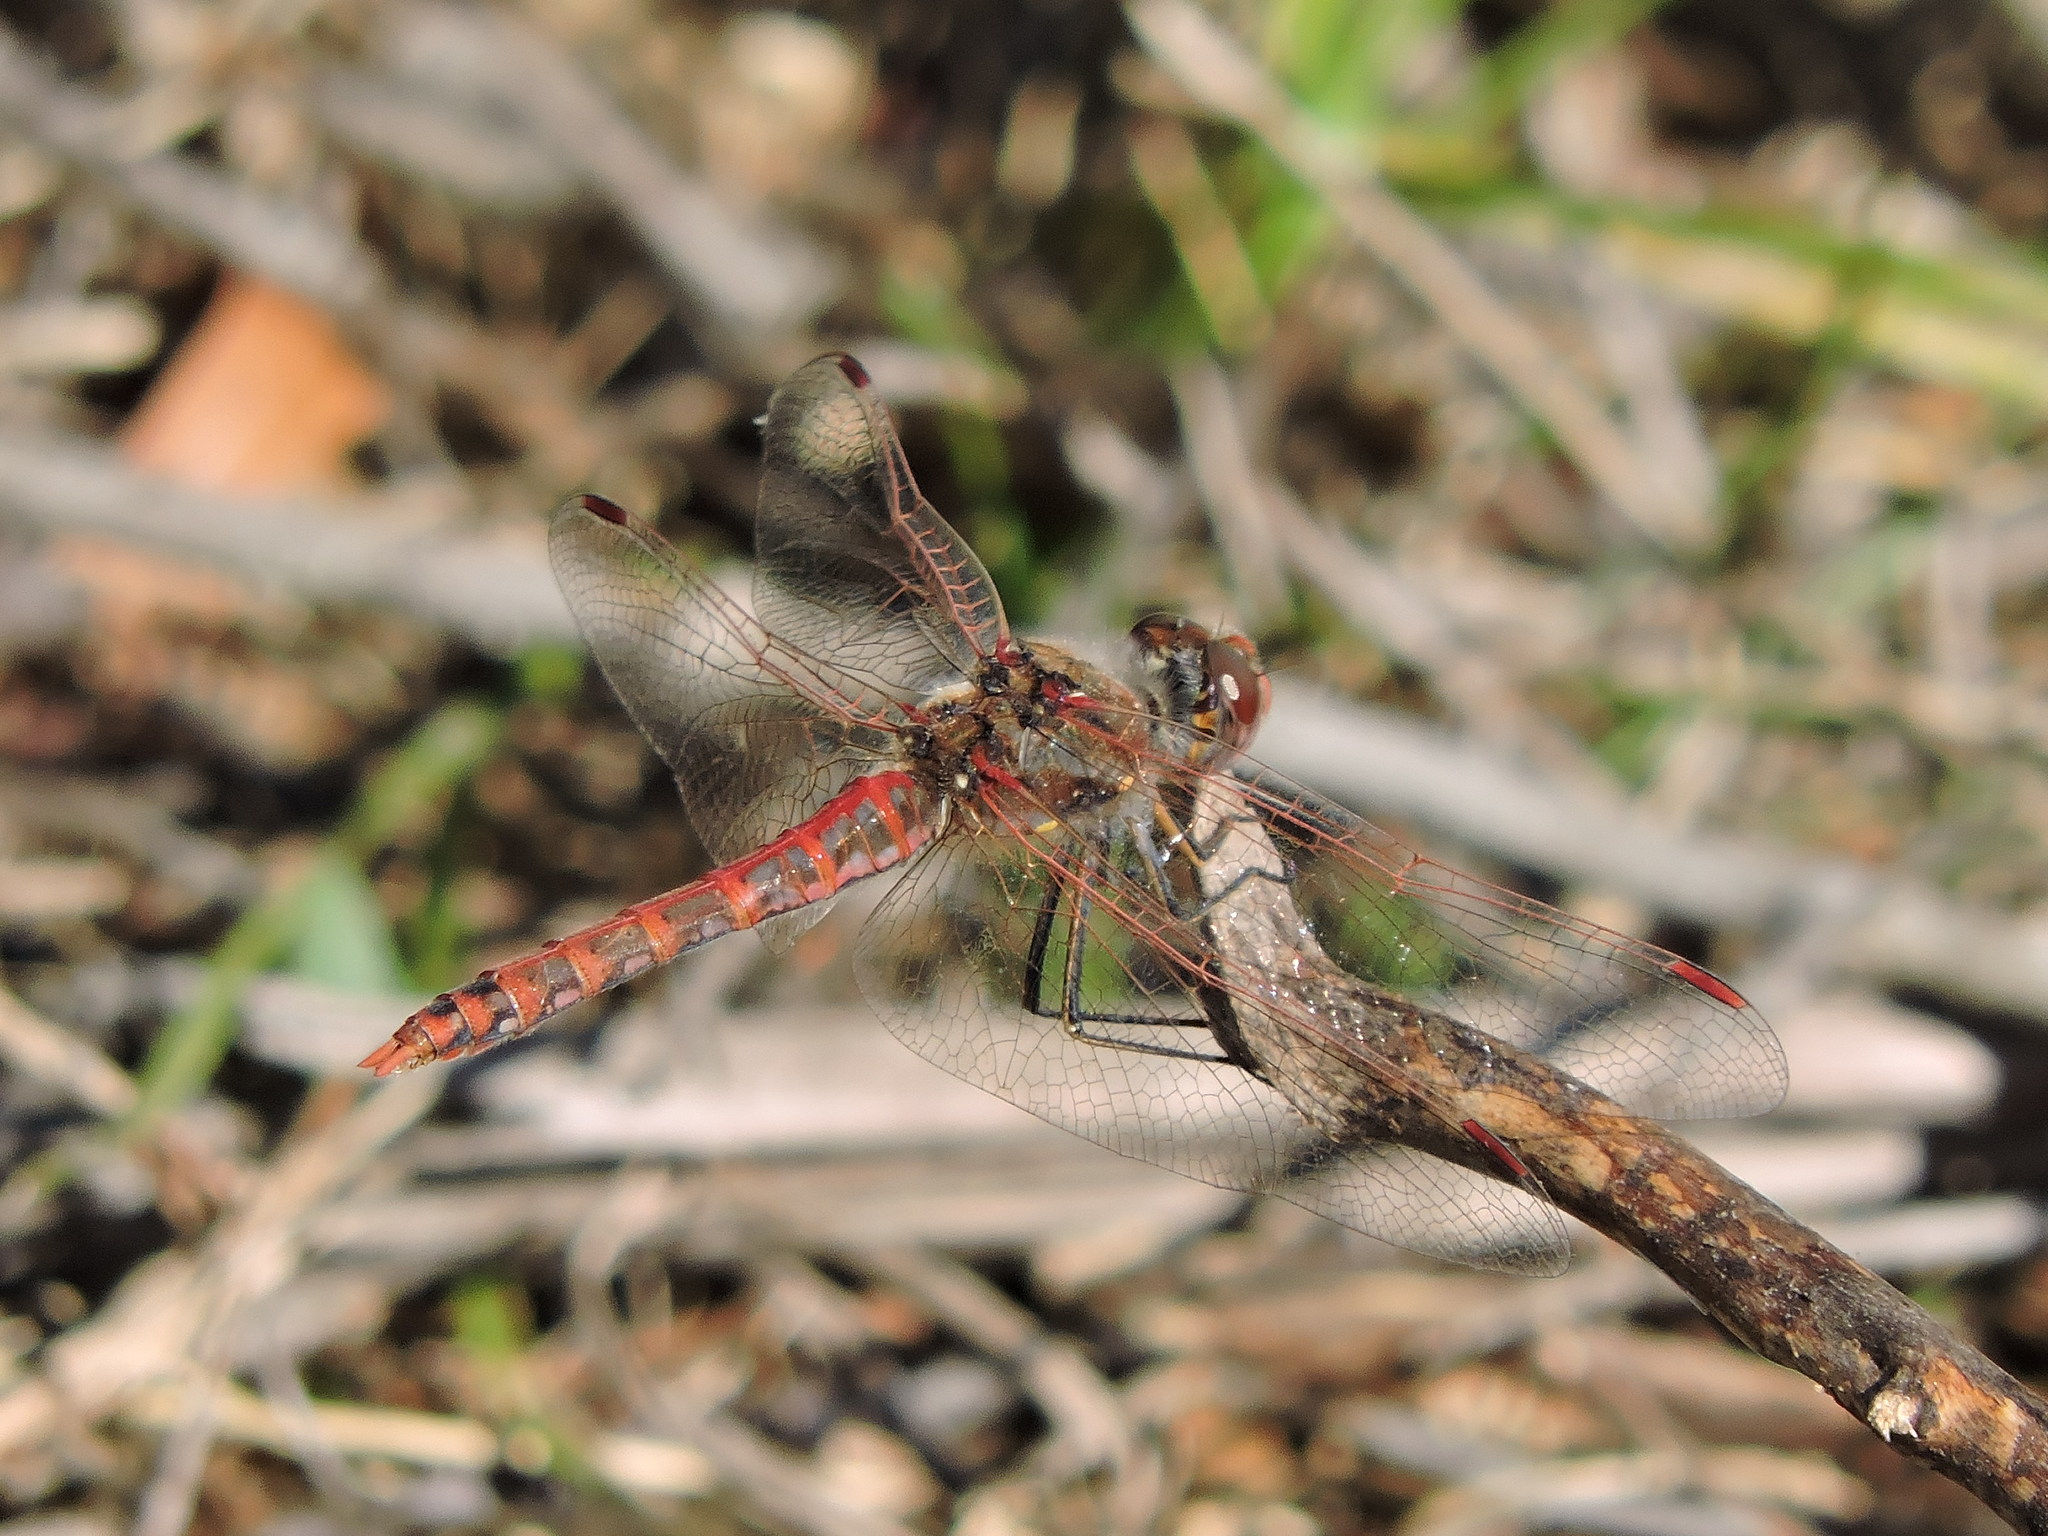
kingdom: Animalia
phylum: Arthropoda
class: Insecta
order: Odonata
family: Libellulidae
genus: Sympetrum
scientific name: Sympetrum corruptum
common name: Variegated meadowhawk
